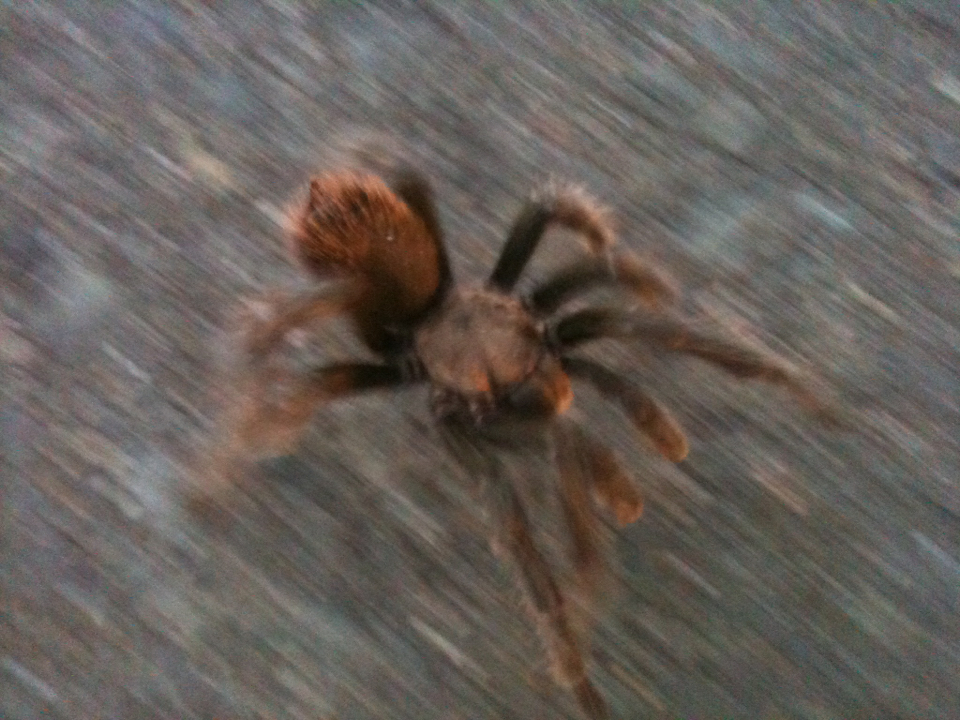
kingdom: Animalia
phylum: Arthropoda
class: Arachnida
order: Araneae
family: Theraphosidae
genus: Aphonopelma
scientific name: Aphonopelma iodius
